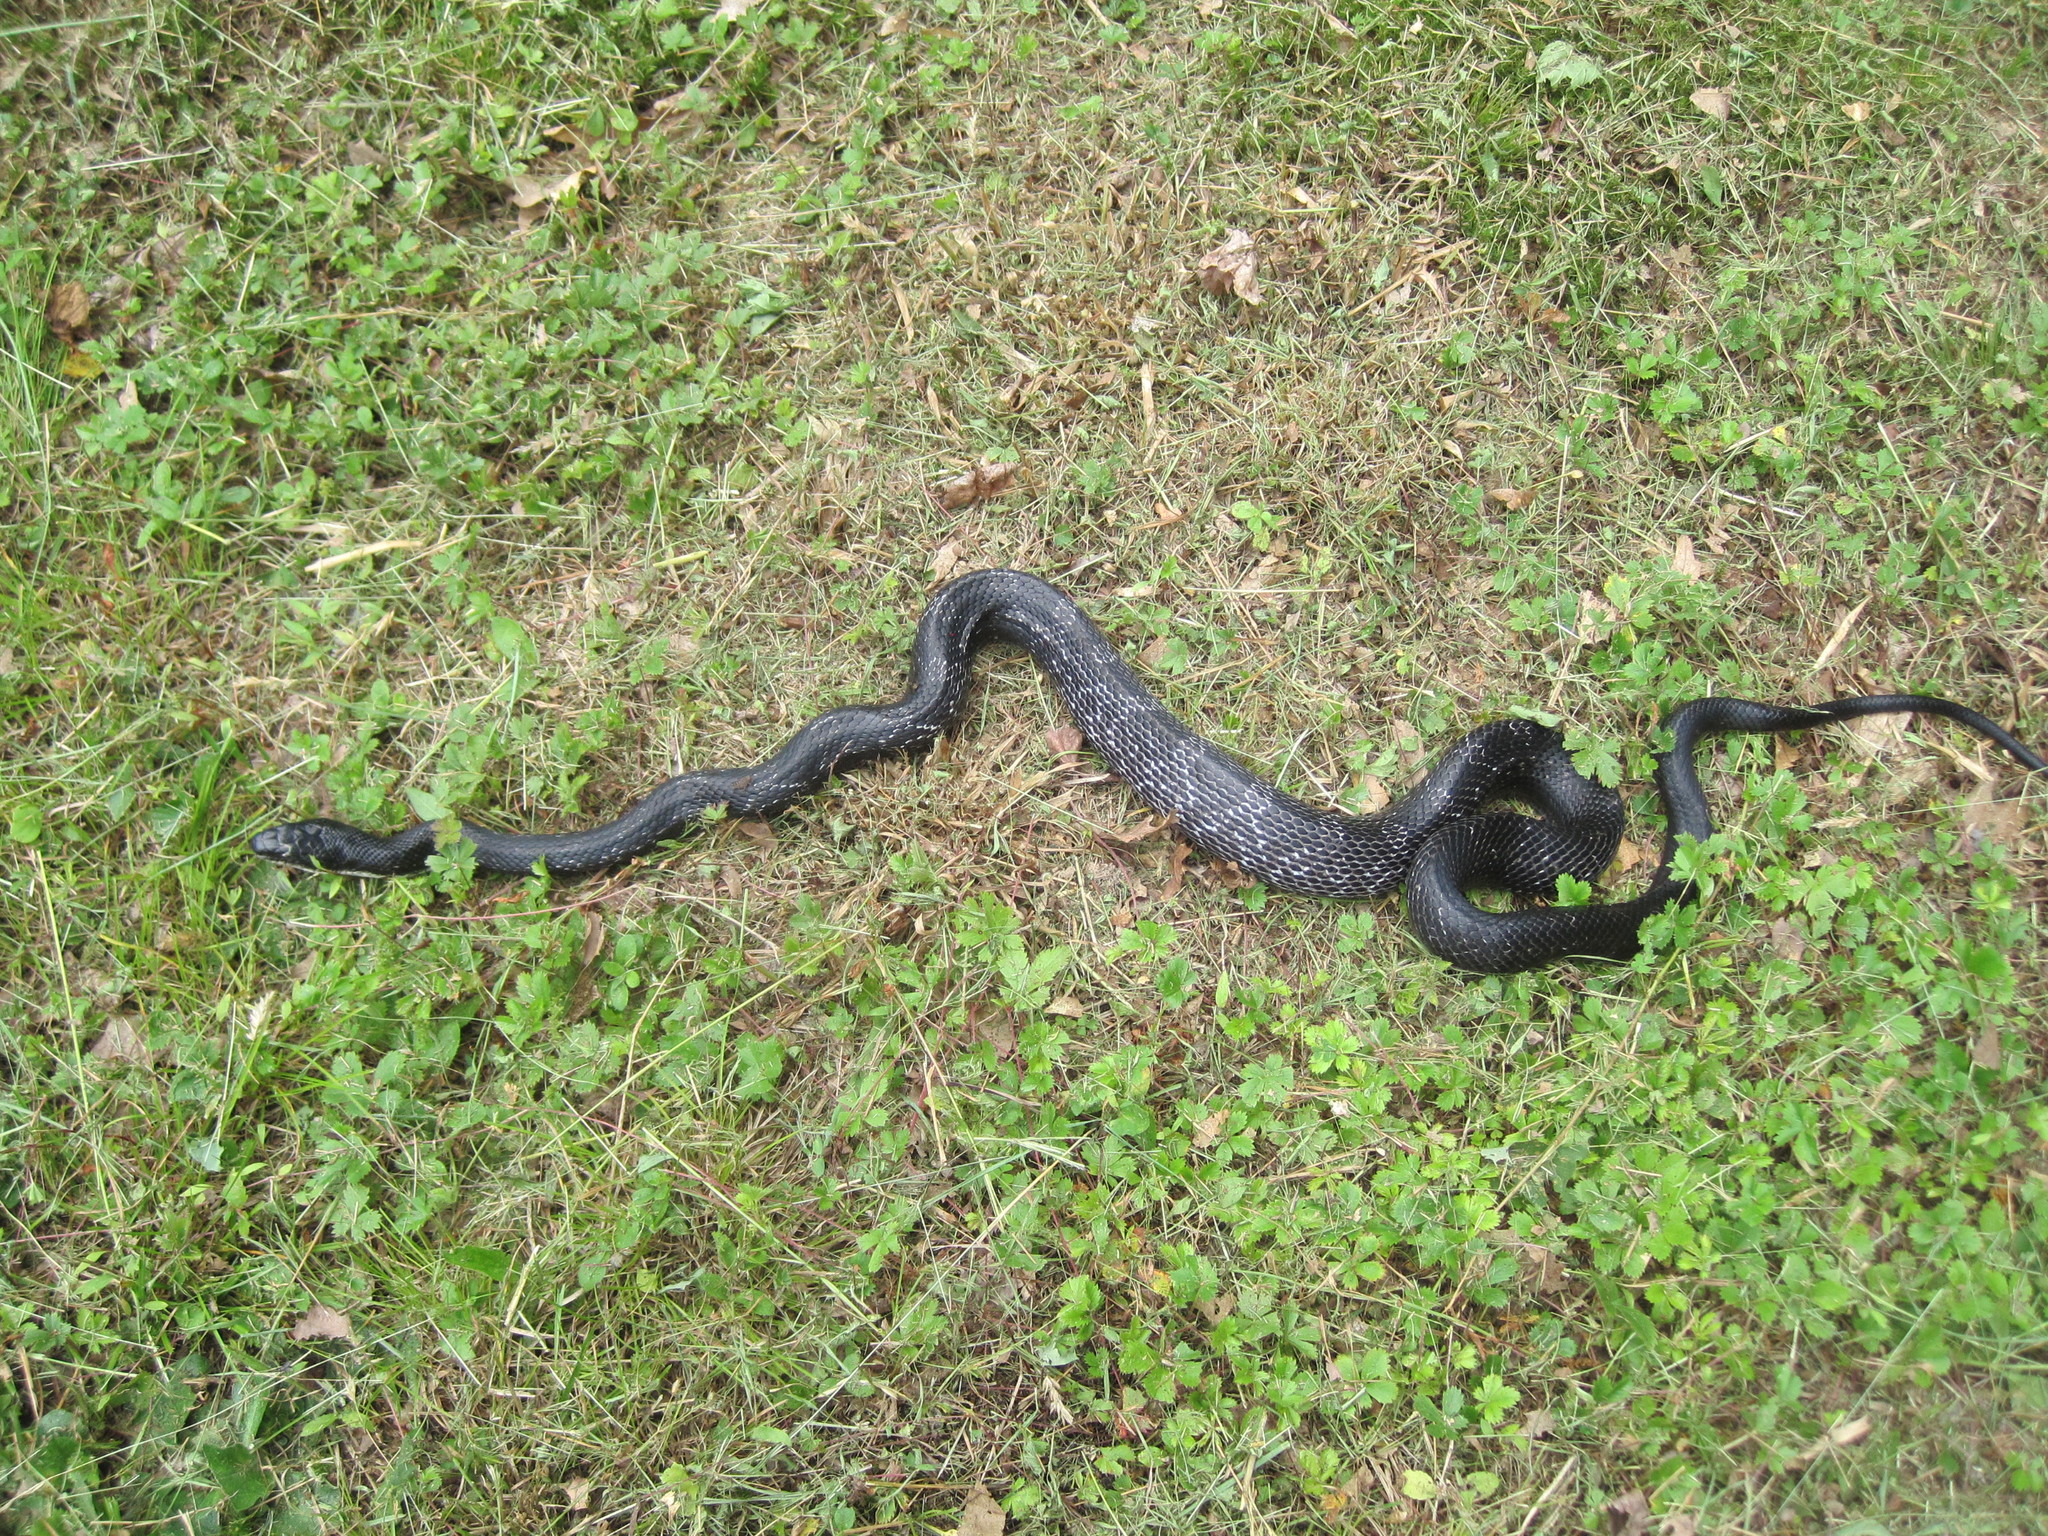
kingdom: Animalia
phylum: Chordata
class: Squamata
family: Colubridae
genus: Pantherophis
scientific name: Pantherophis alleghaniensis
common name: Eastern rat snake
